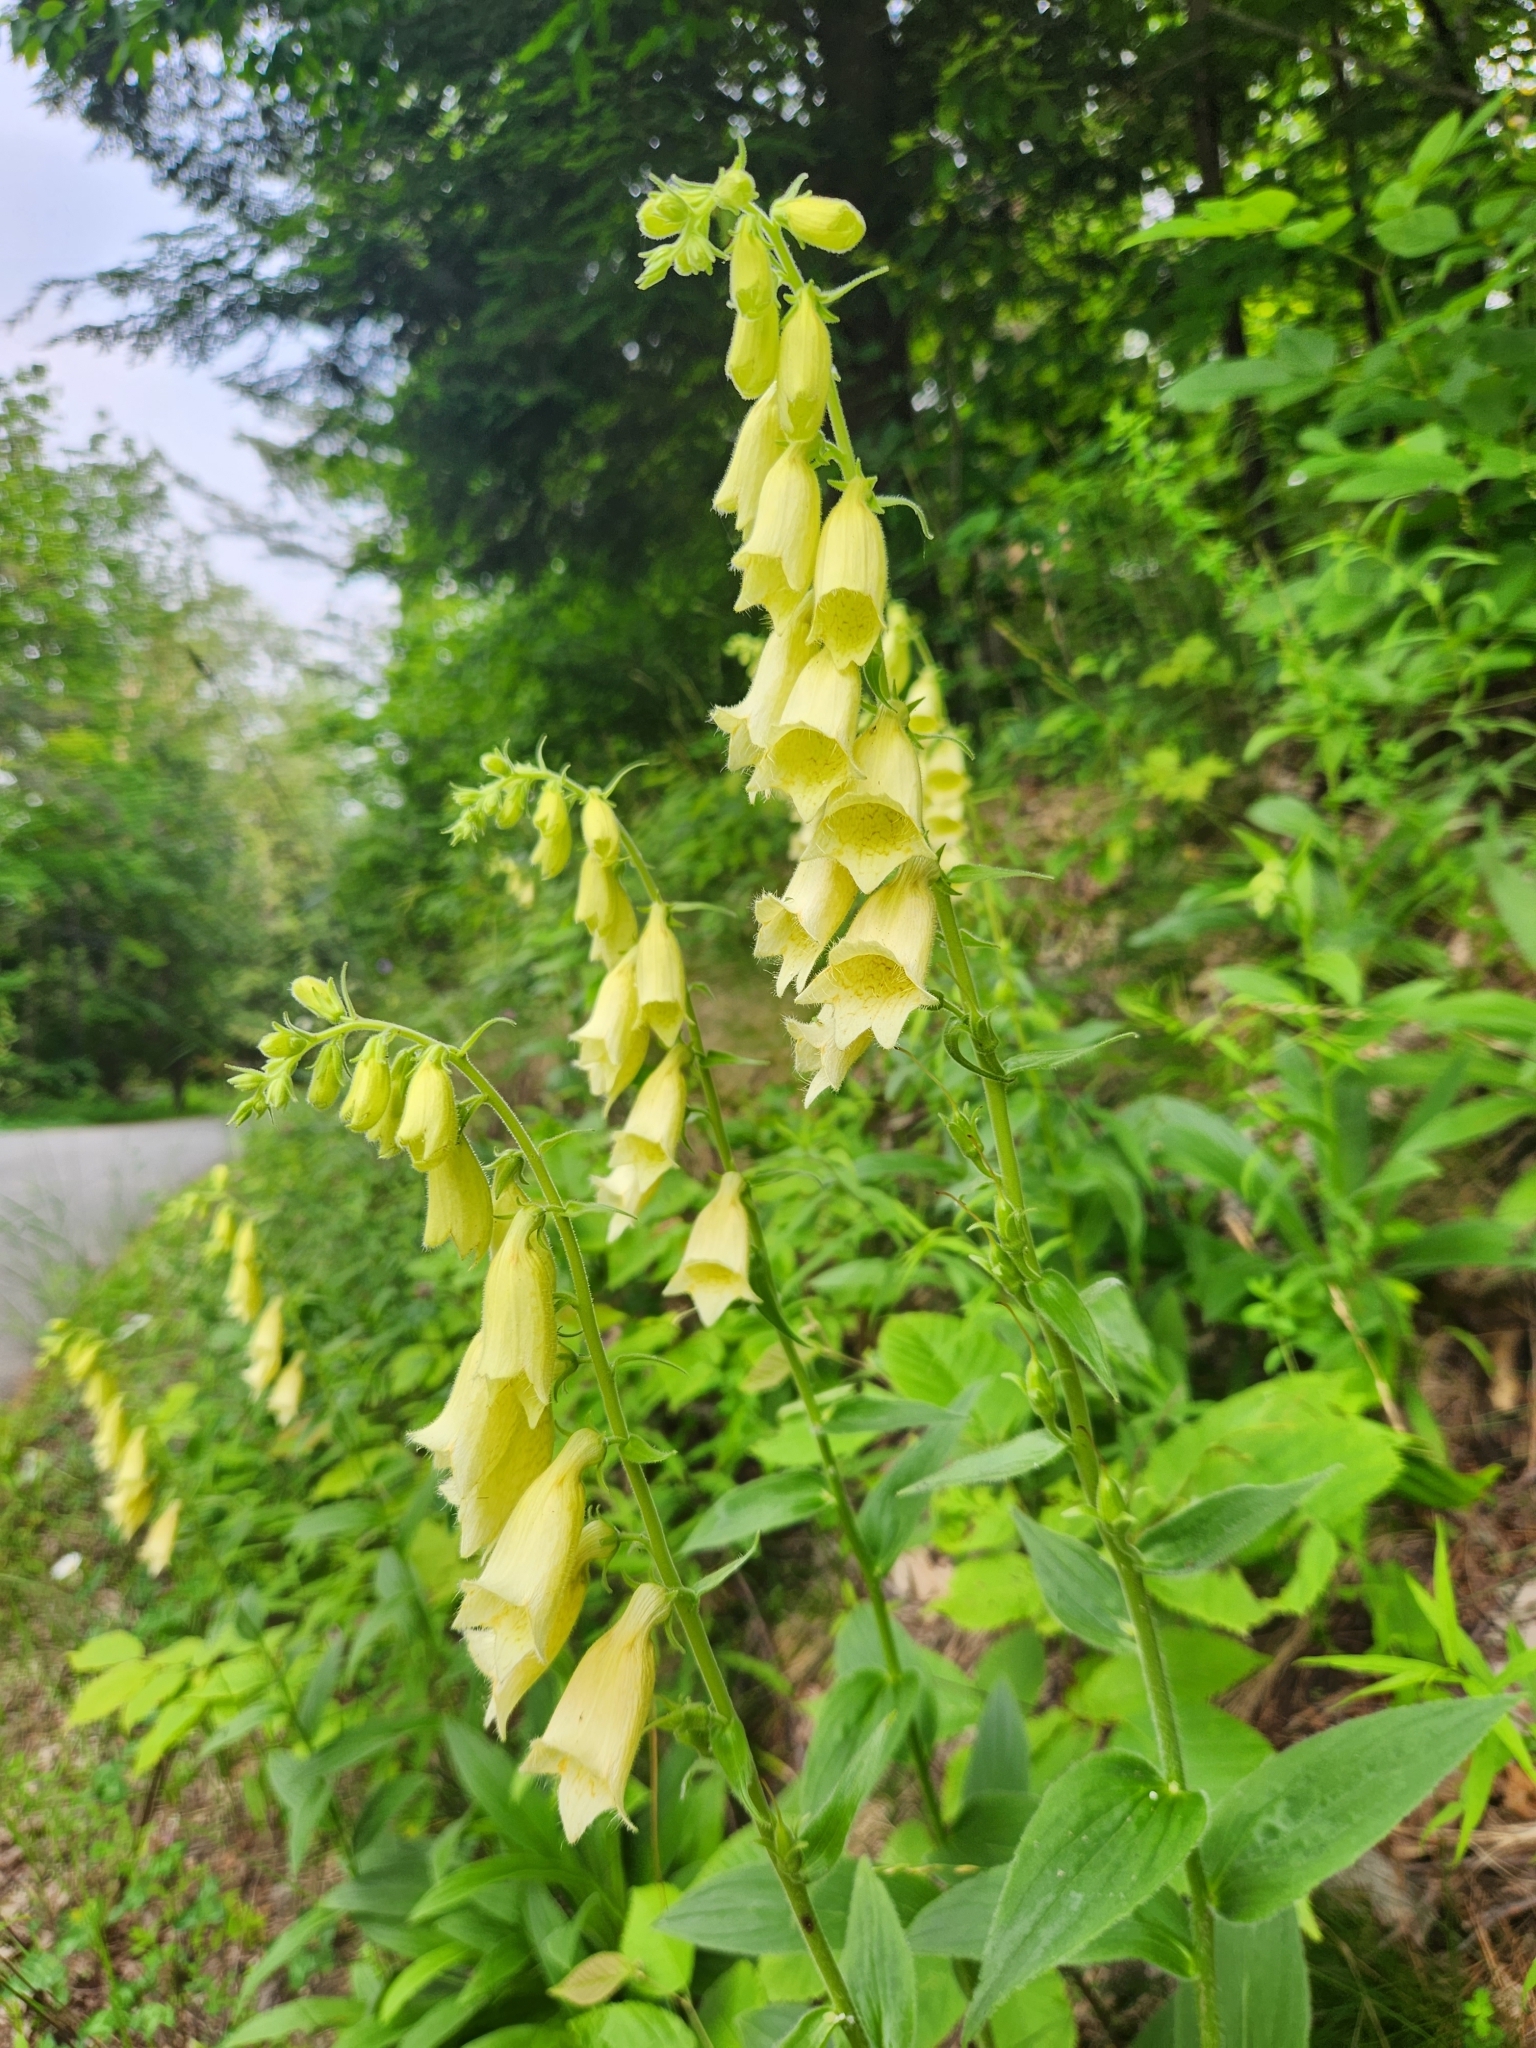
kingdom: Plantae
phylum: Tracheophyta
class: Magnoliopsida
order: Lamiales
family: Plantaginaceae
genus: Digitalis
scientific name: Digitalis grandiflora
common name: Yellow foxglove
